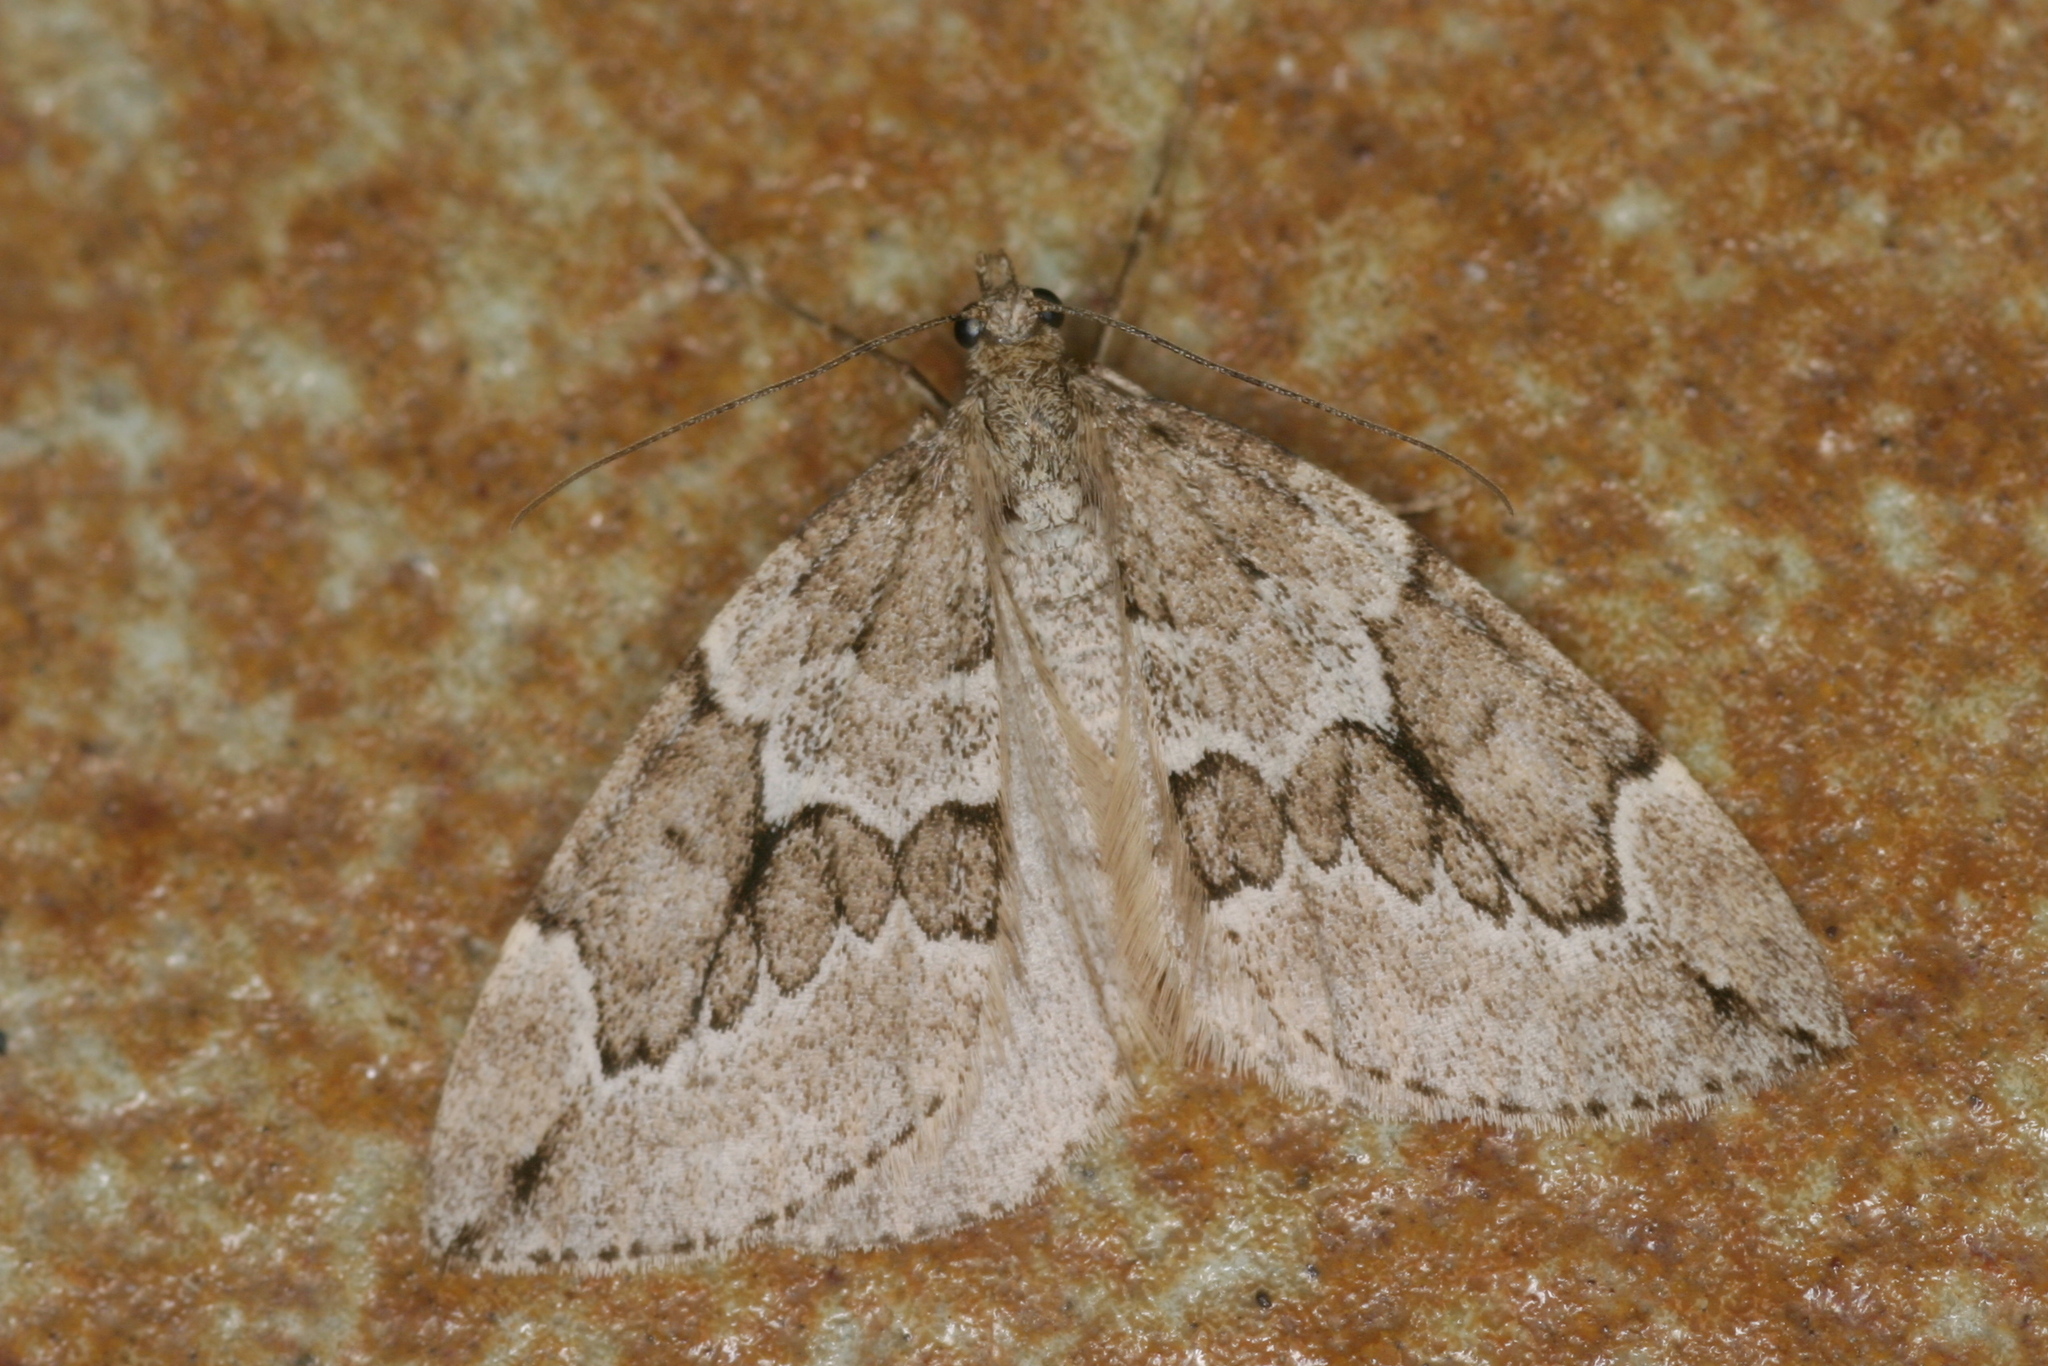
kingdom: Animalia
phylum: Arthropoda
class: Insecta
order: Lepidoptera
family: Geometridae
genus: Thera
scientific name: Thera juniperata
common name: Juniper carpet
